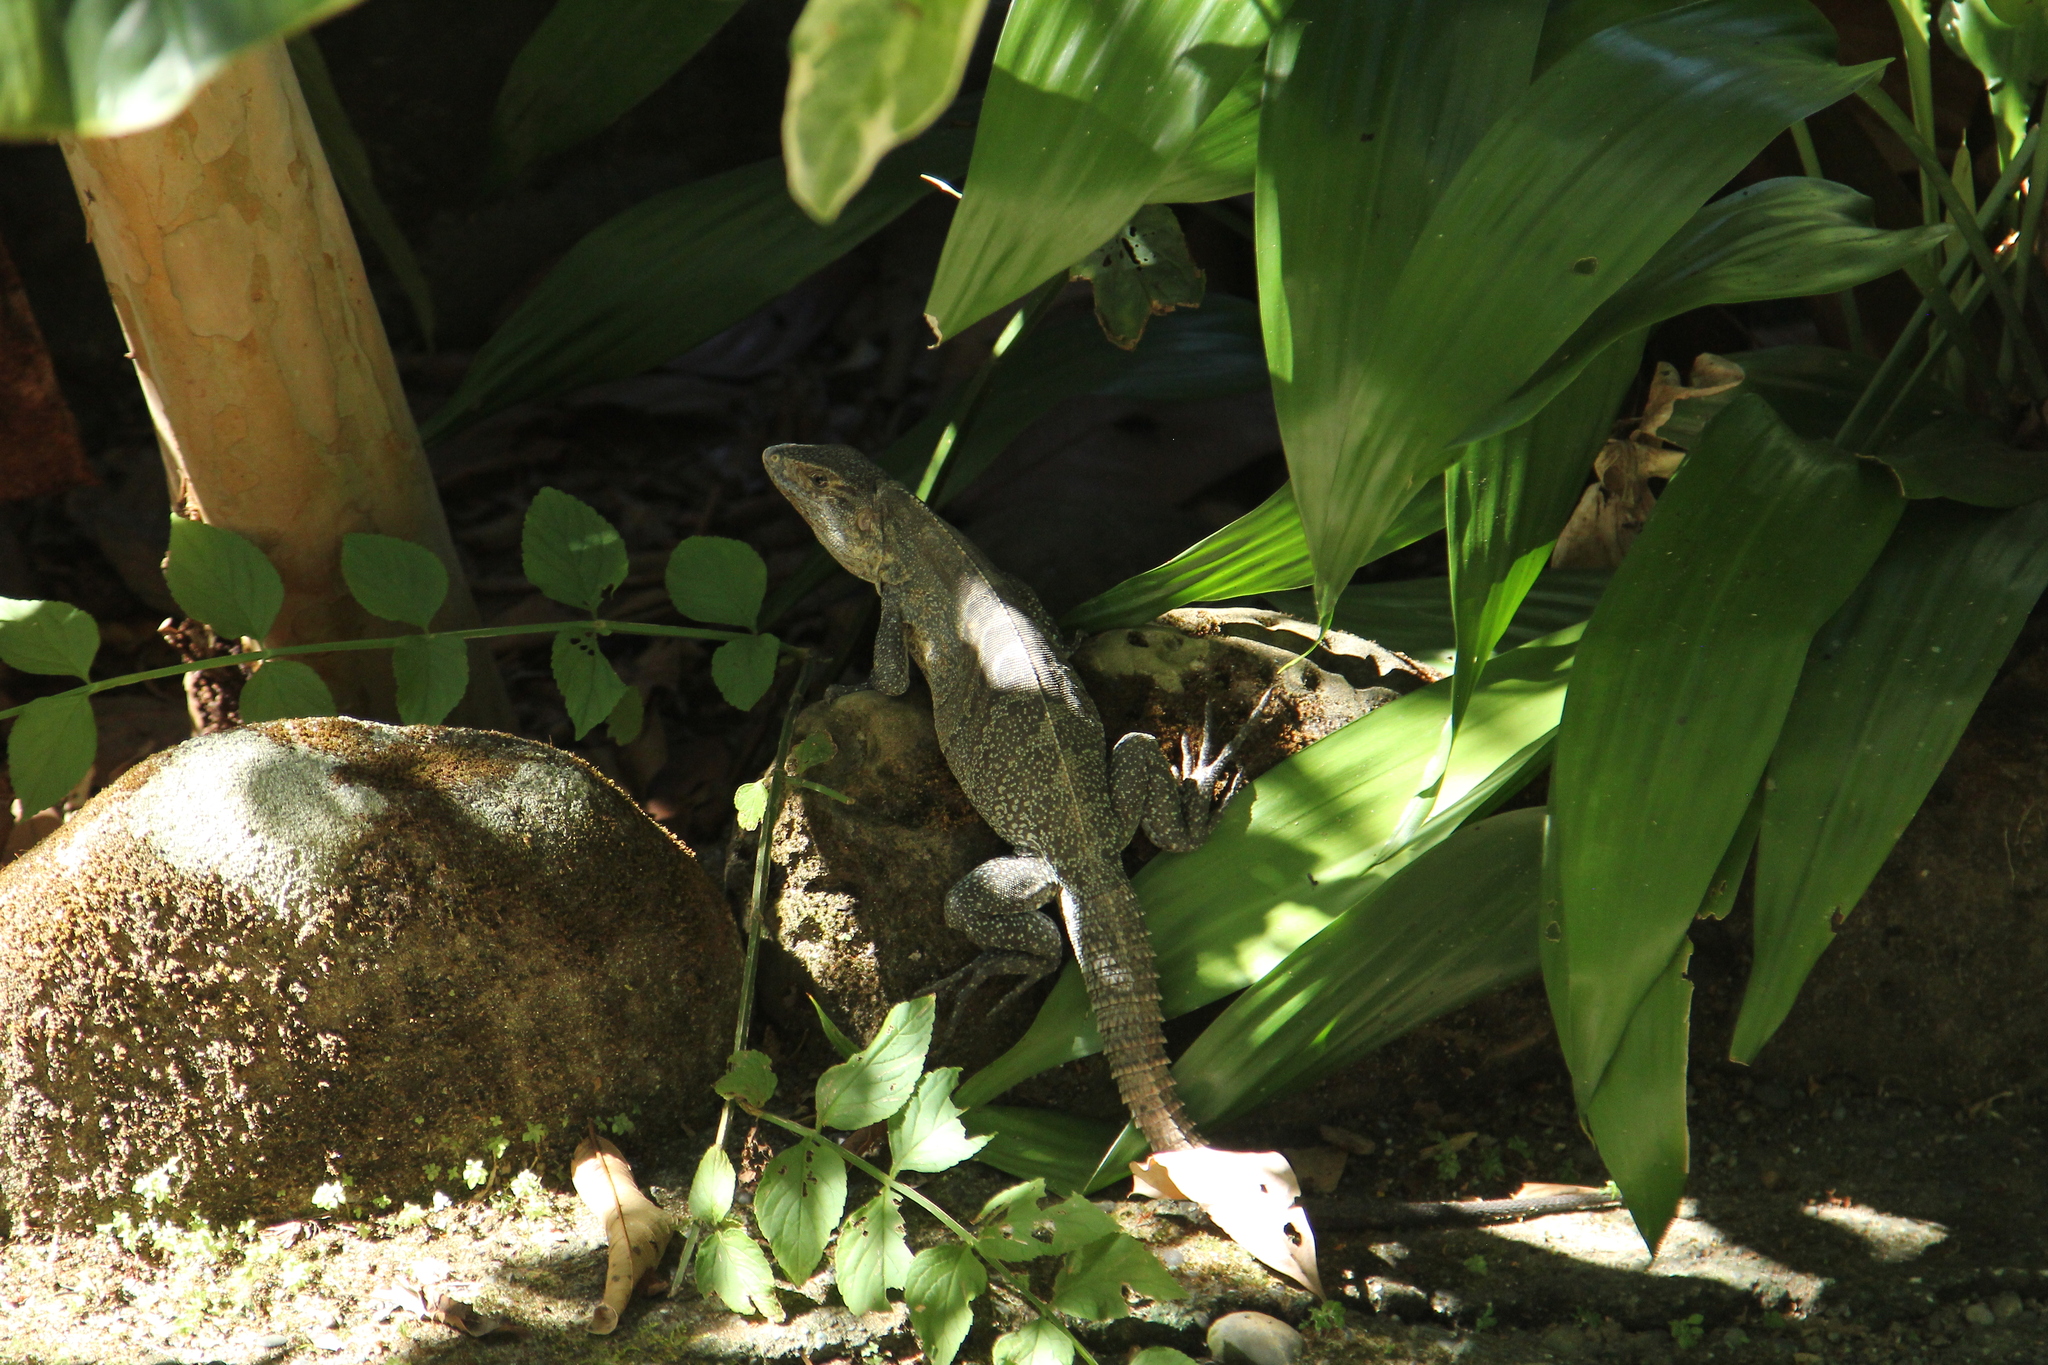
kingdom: Animalia
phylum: Chordata
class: Squamata
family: Iguanidae
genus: Ctenosaura
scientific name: Ctenosaura similis
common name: Black spiny-tailed iguana
